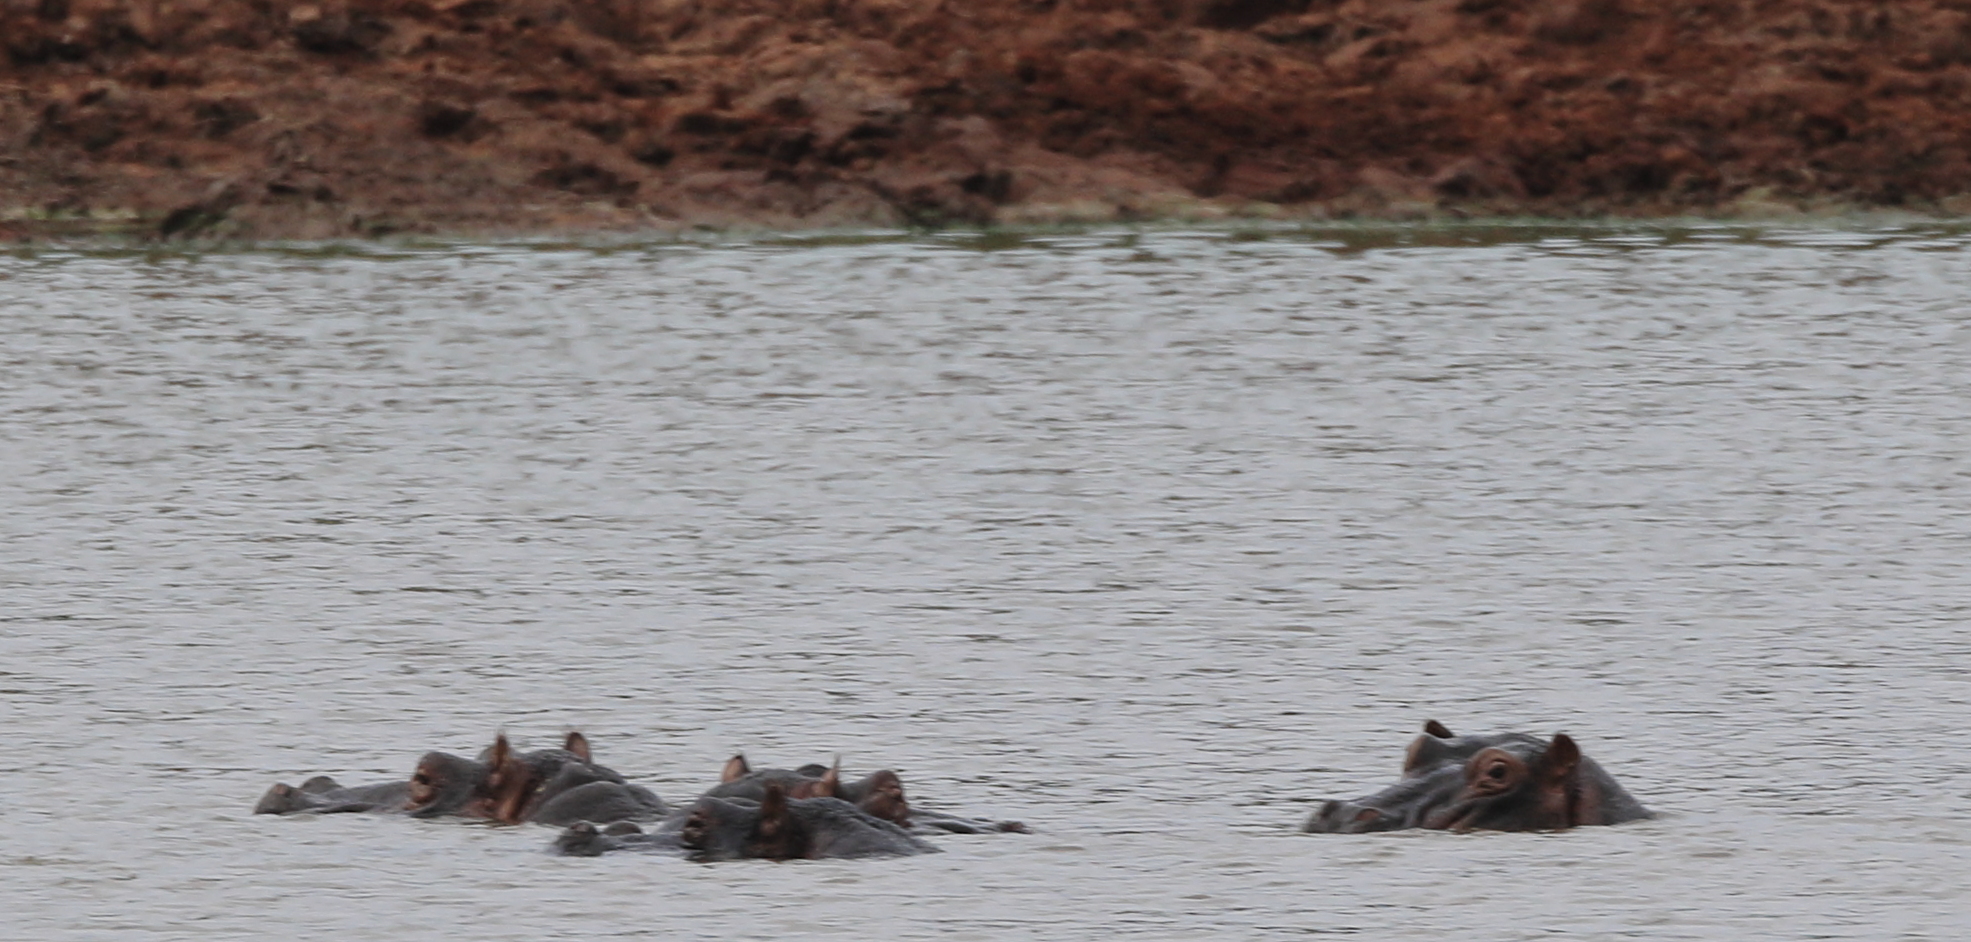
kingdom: Animalia
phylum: Chordata
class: Mammalia
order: Artiodactyla
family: Hippopotamidae
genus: Hippopotamus
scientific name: Hippopotamus amphibius
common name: Common hippopotamus
